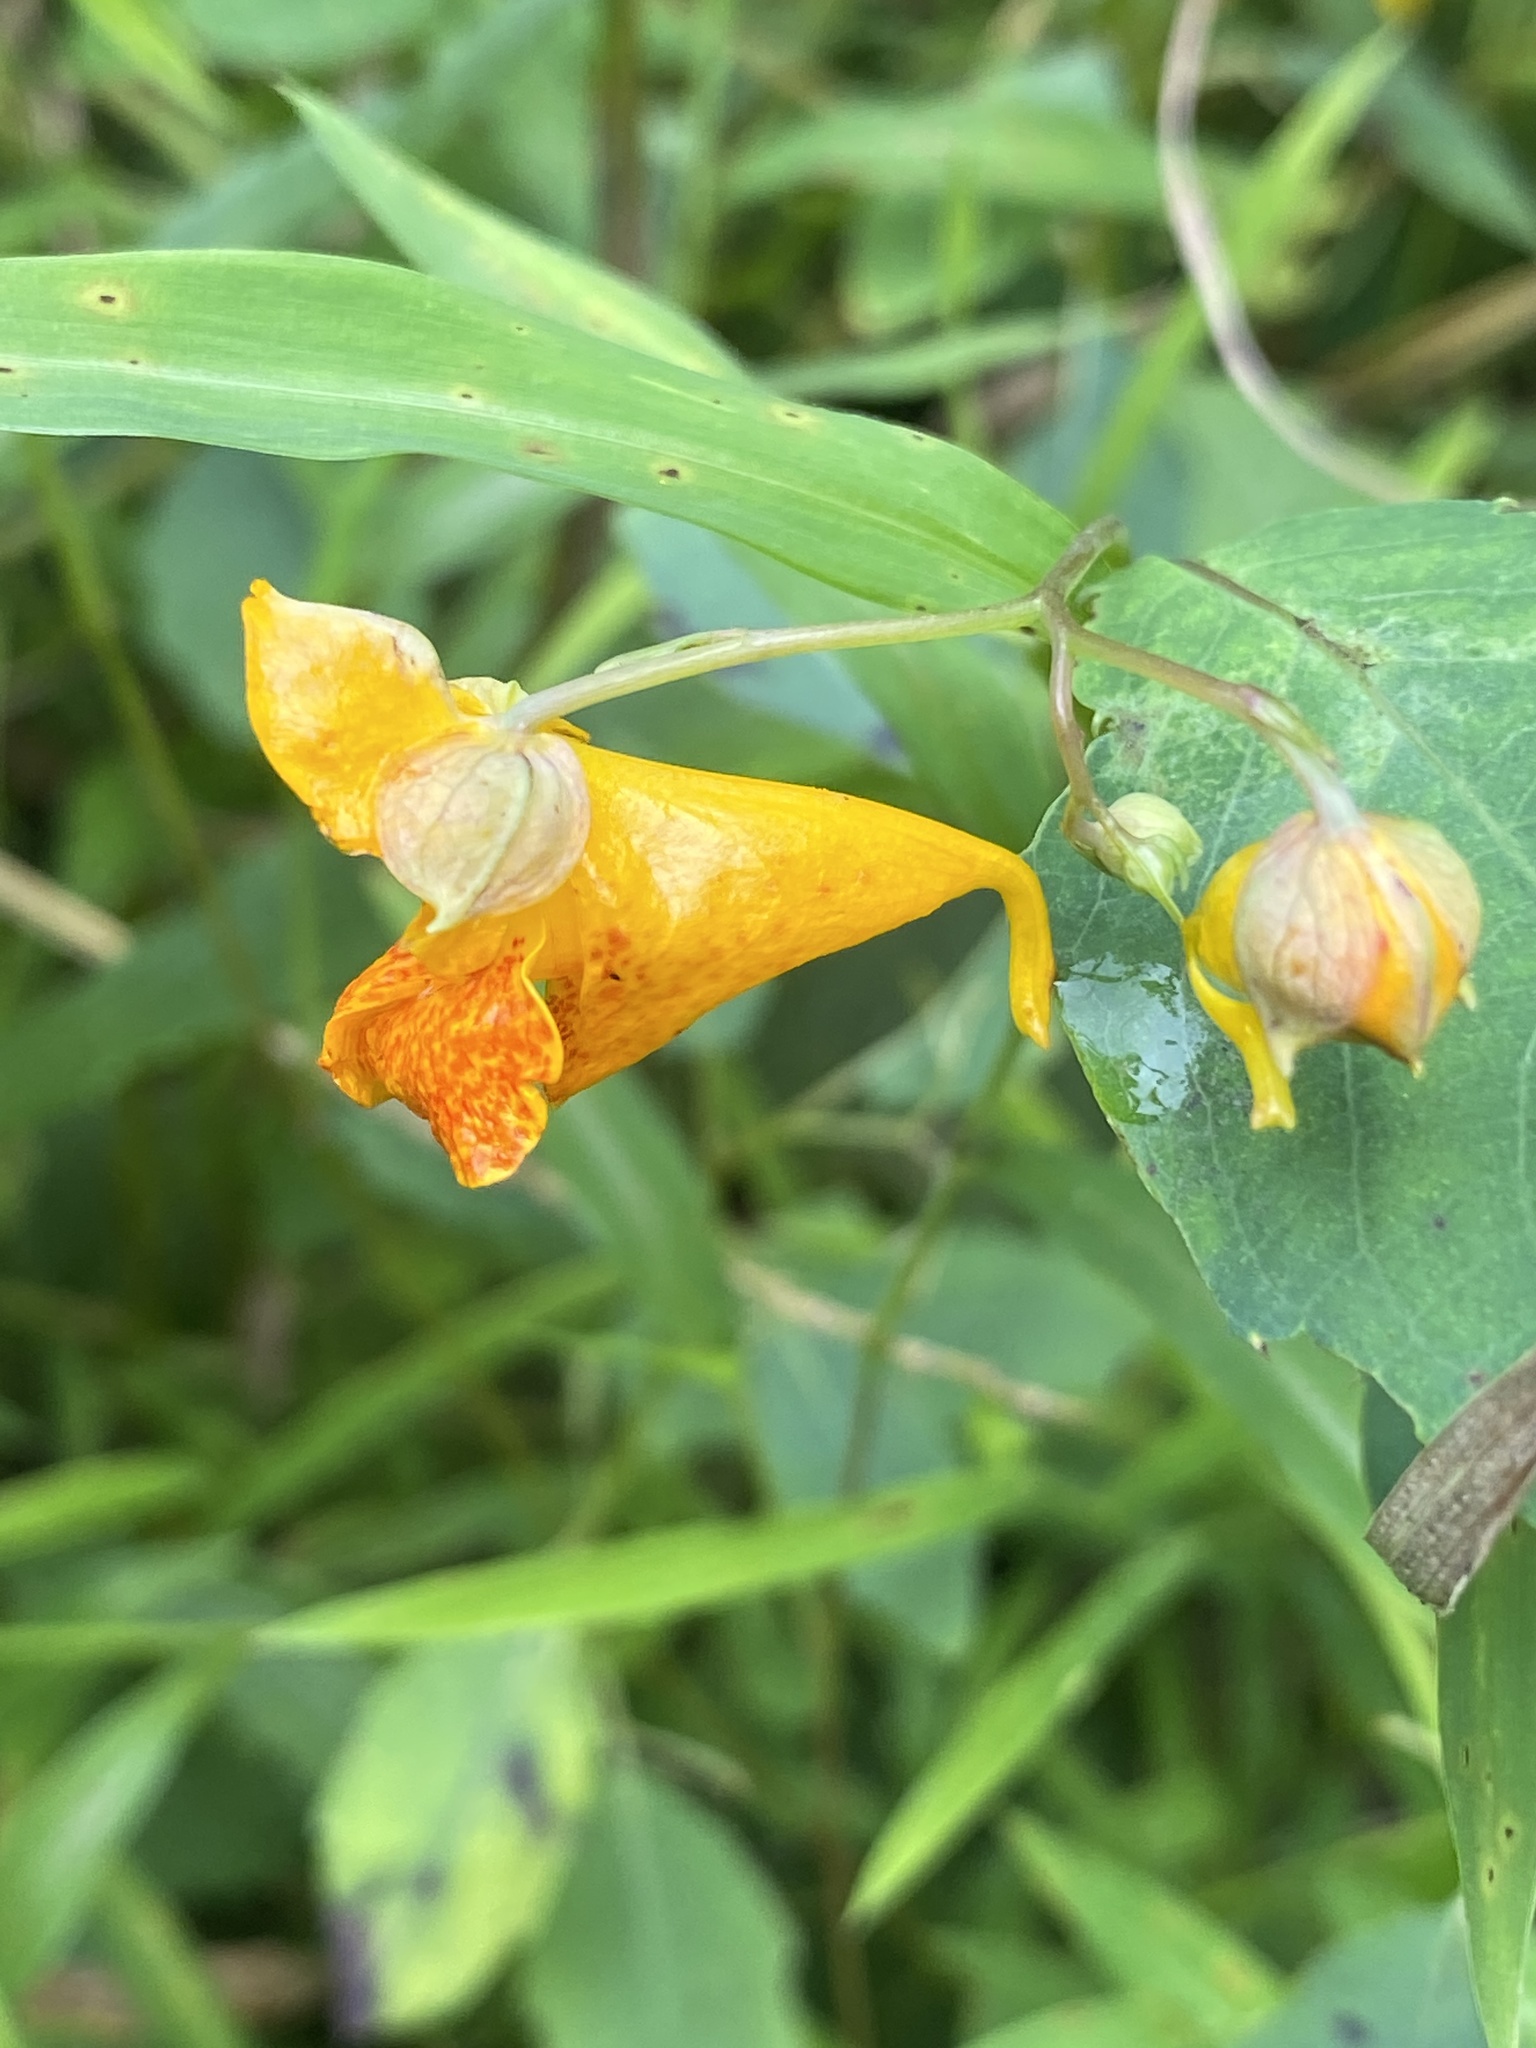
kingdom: Plantae
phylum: Tracheophyta
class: Magnoliopsida
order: Ericales
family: Balsaminaceae
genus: Impatiens
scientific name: Impatiens capensis
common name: Orange balsam
